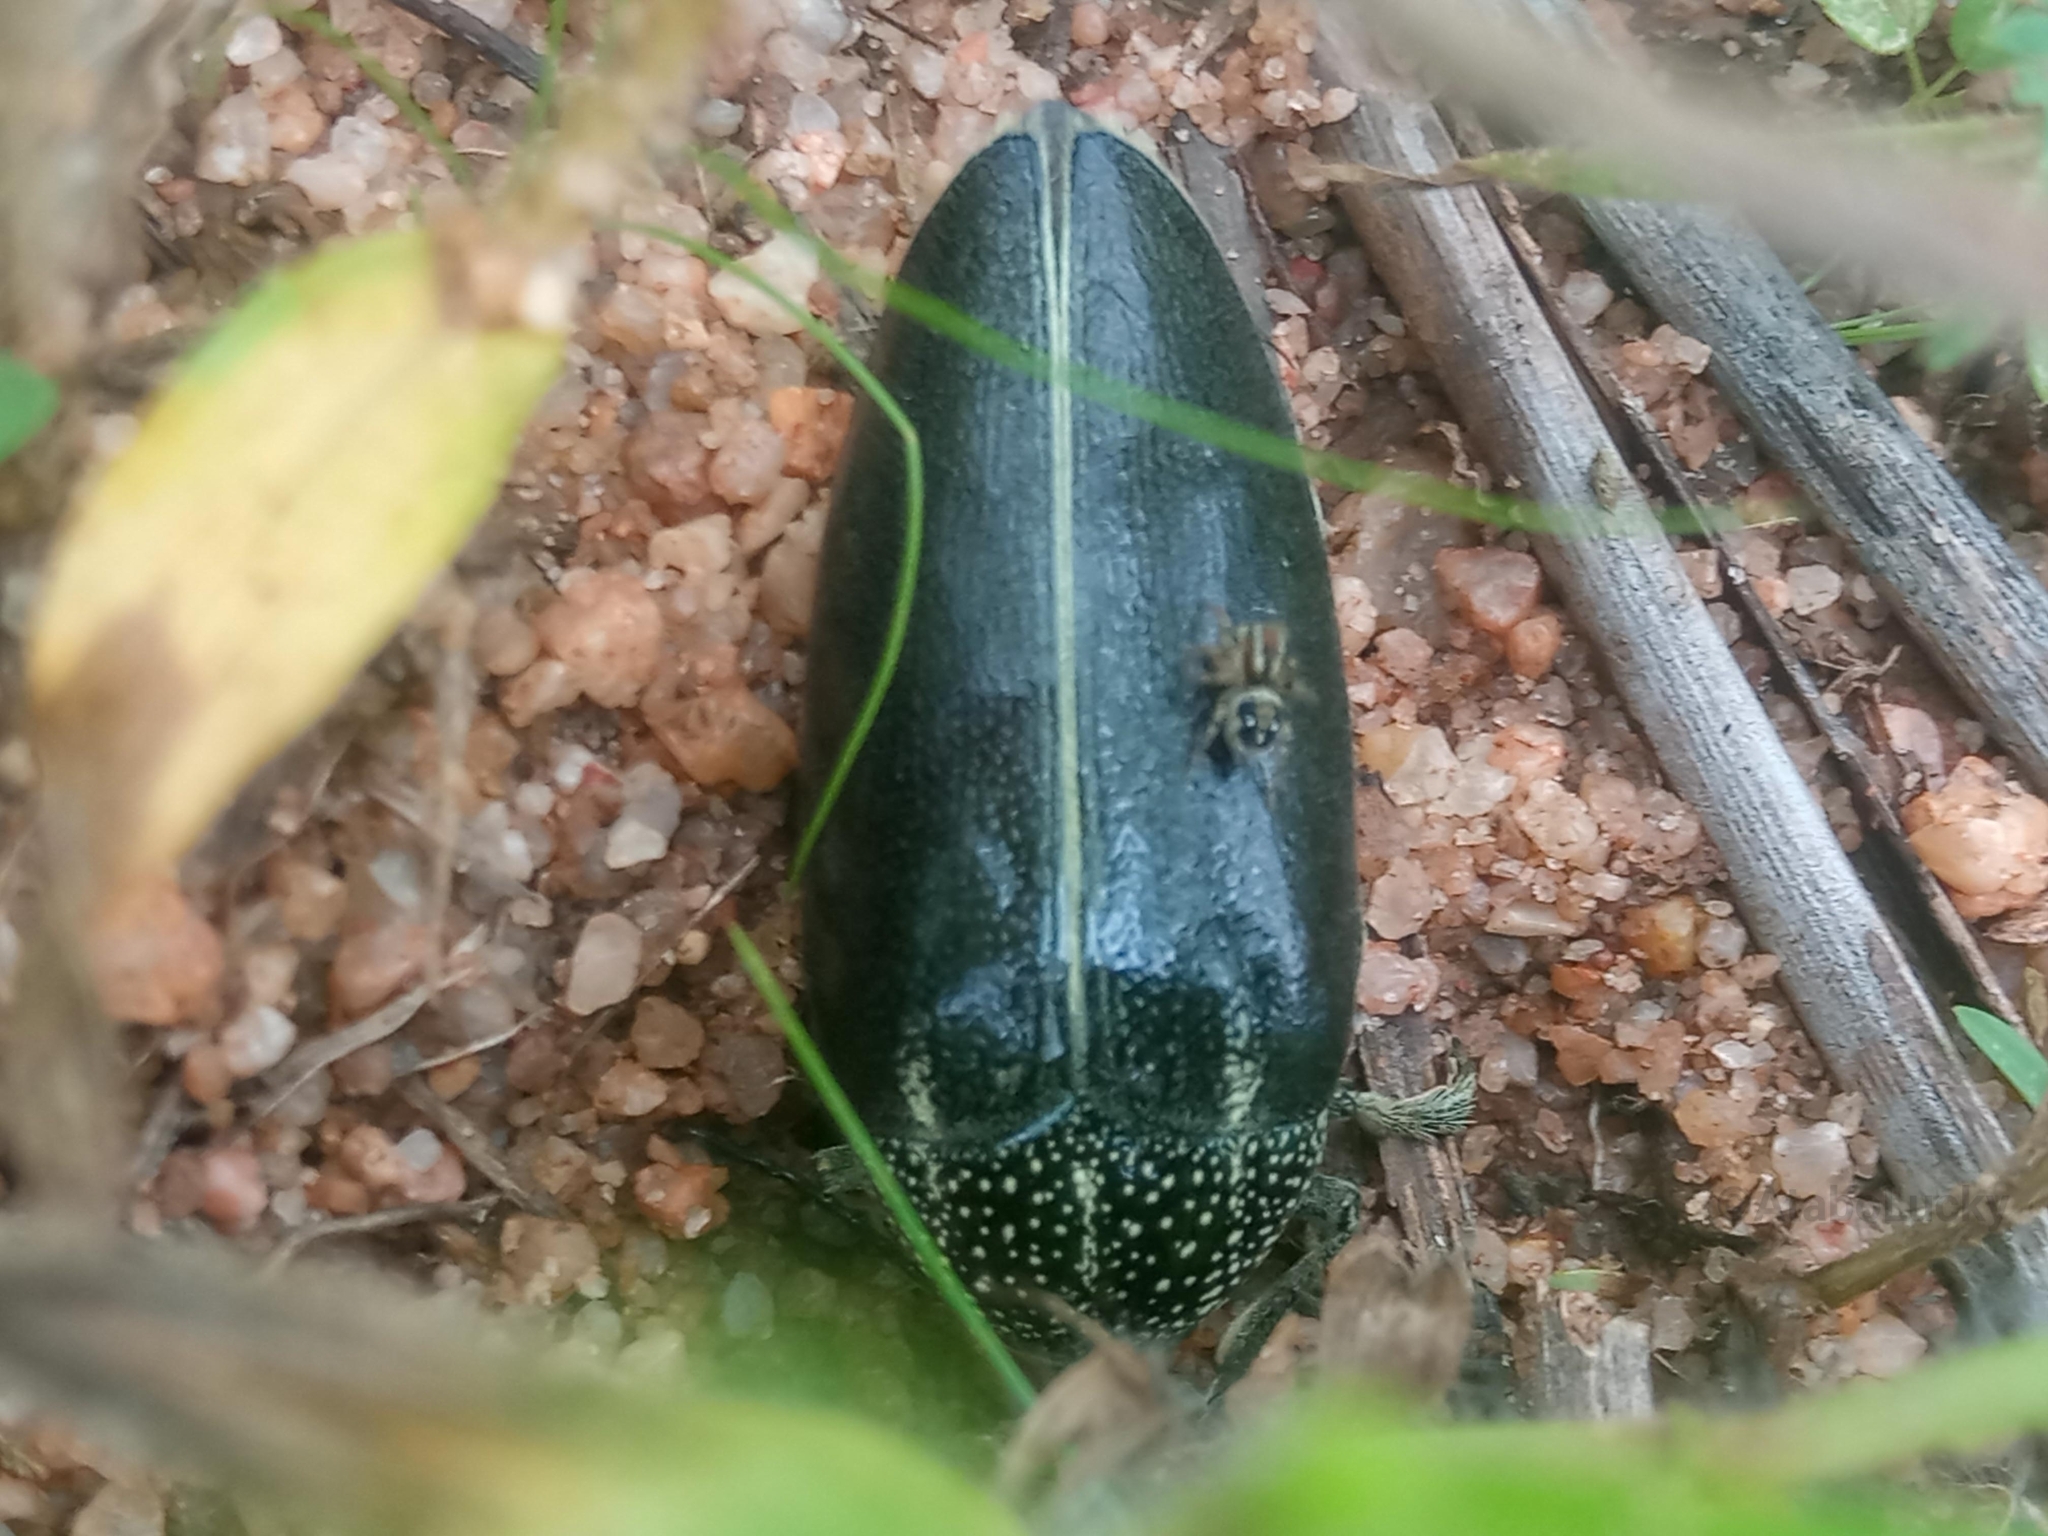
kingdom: Animalia
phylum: Arthropoda
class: Insecta
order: Coleoptera
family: Buprestidae
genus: Sternocera
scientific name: Sternocera klugii
